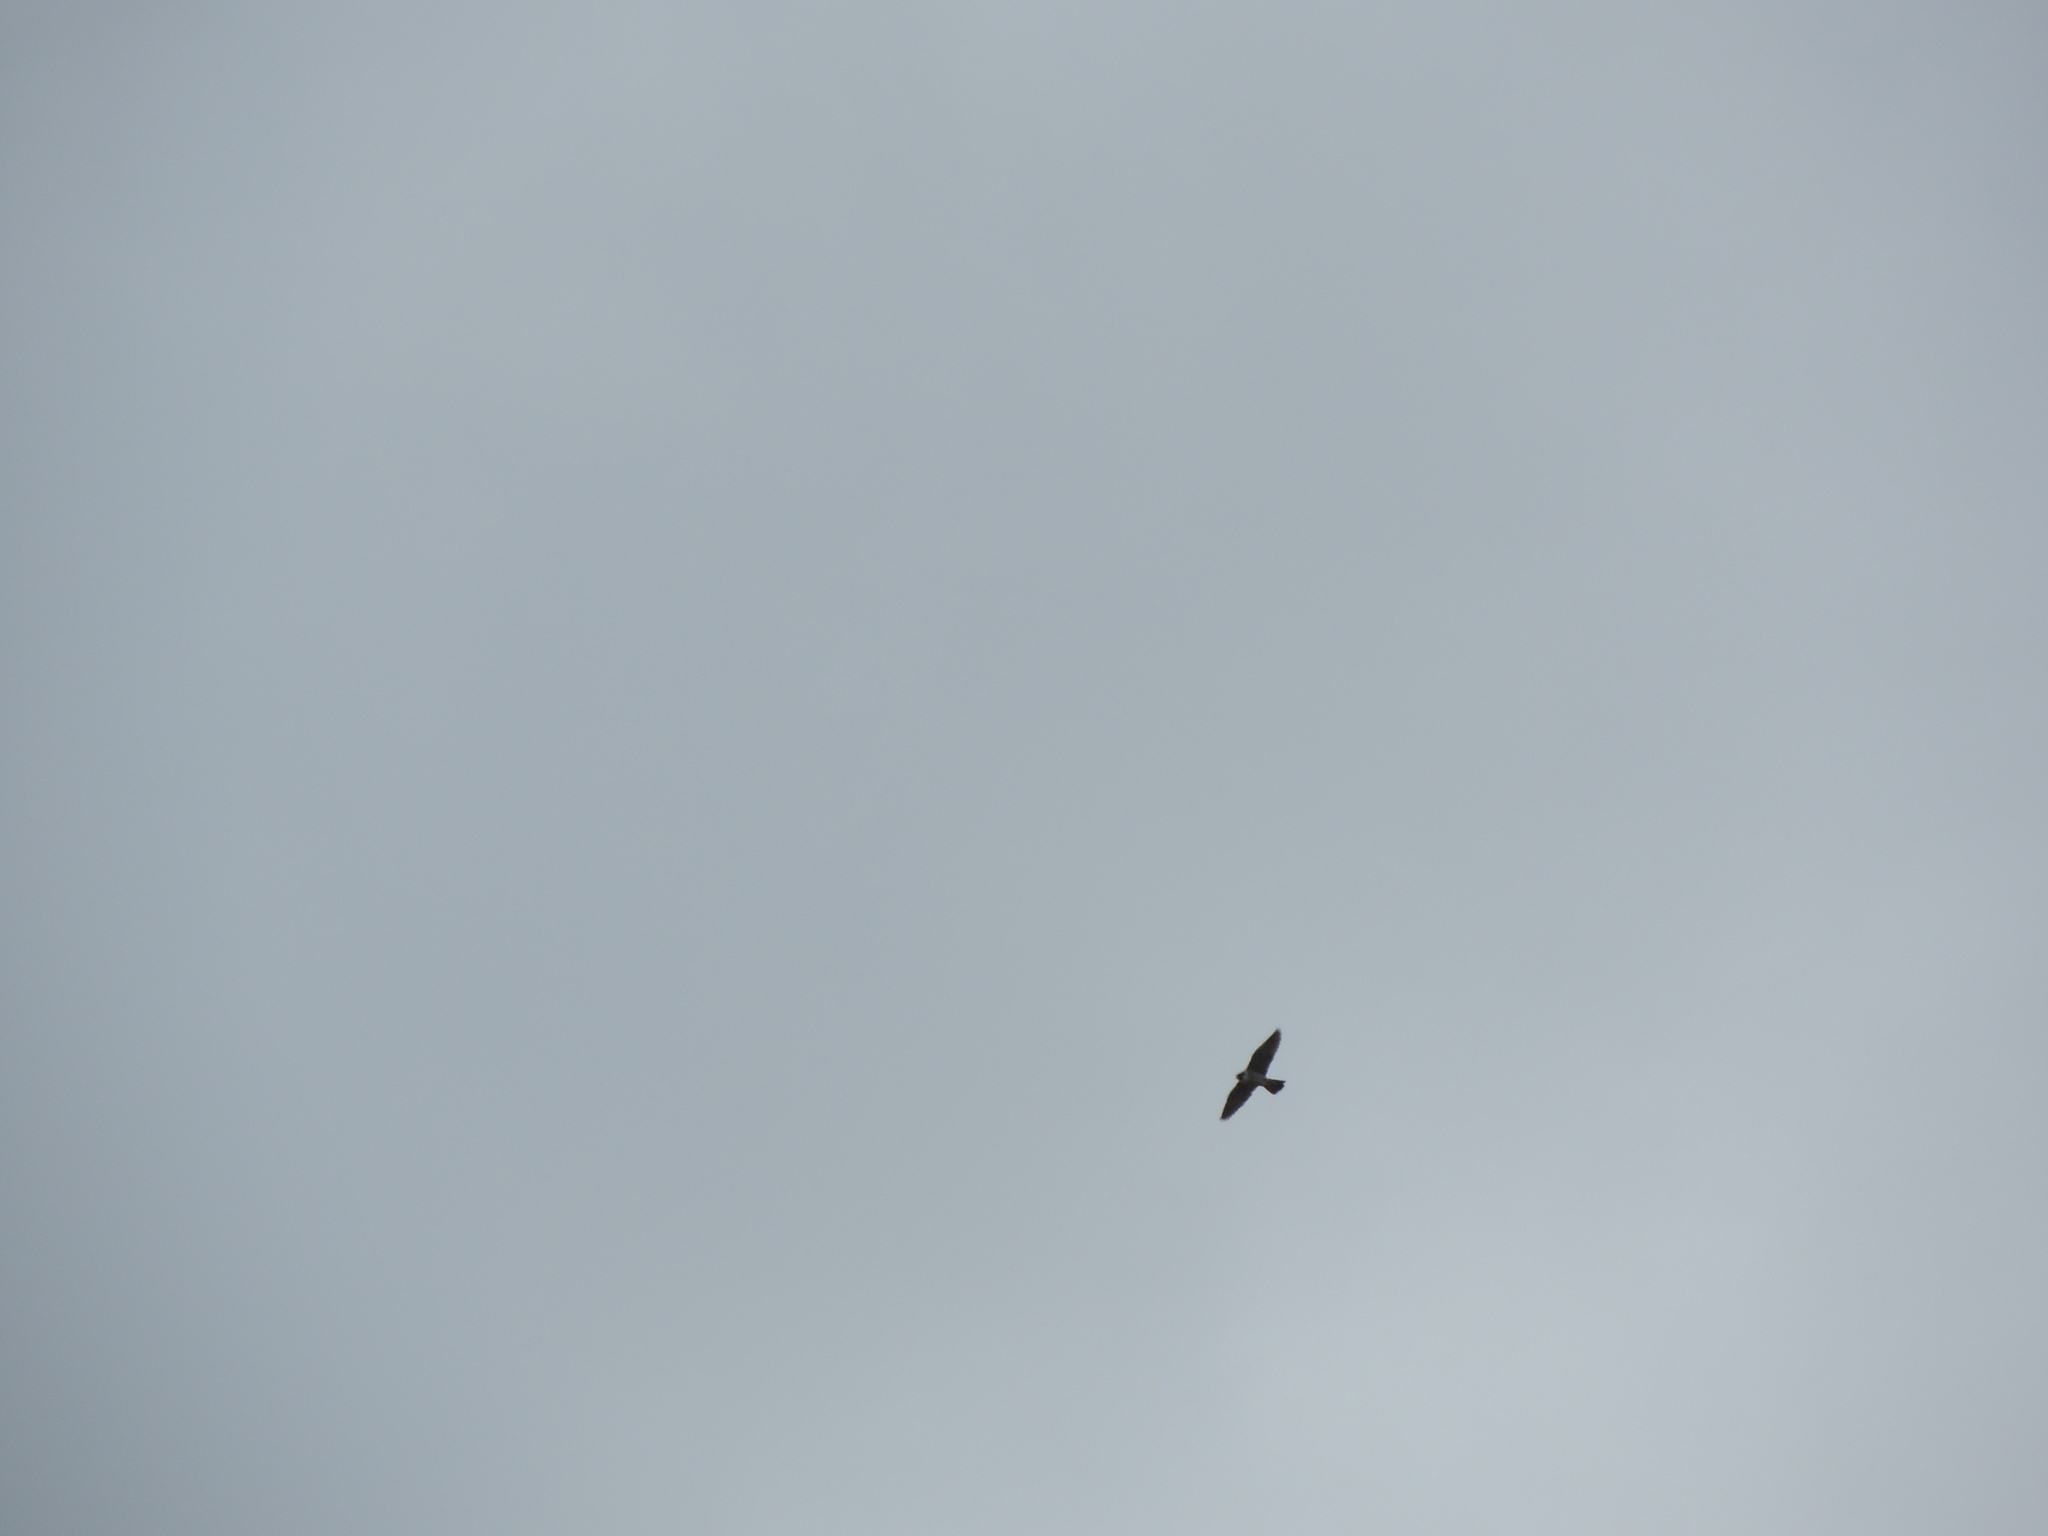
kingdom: Animalia
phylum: Chordata
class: Aves
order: Falconiformes
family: Falconidae
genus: Falco
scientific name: Falco peregrinus
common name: Peregrine falcon
